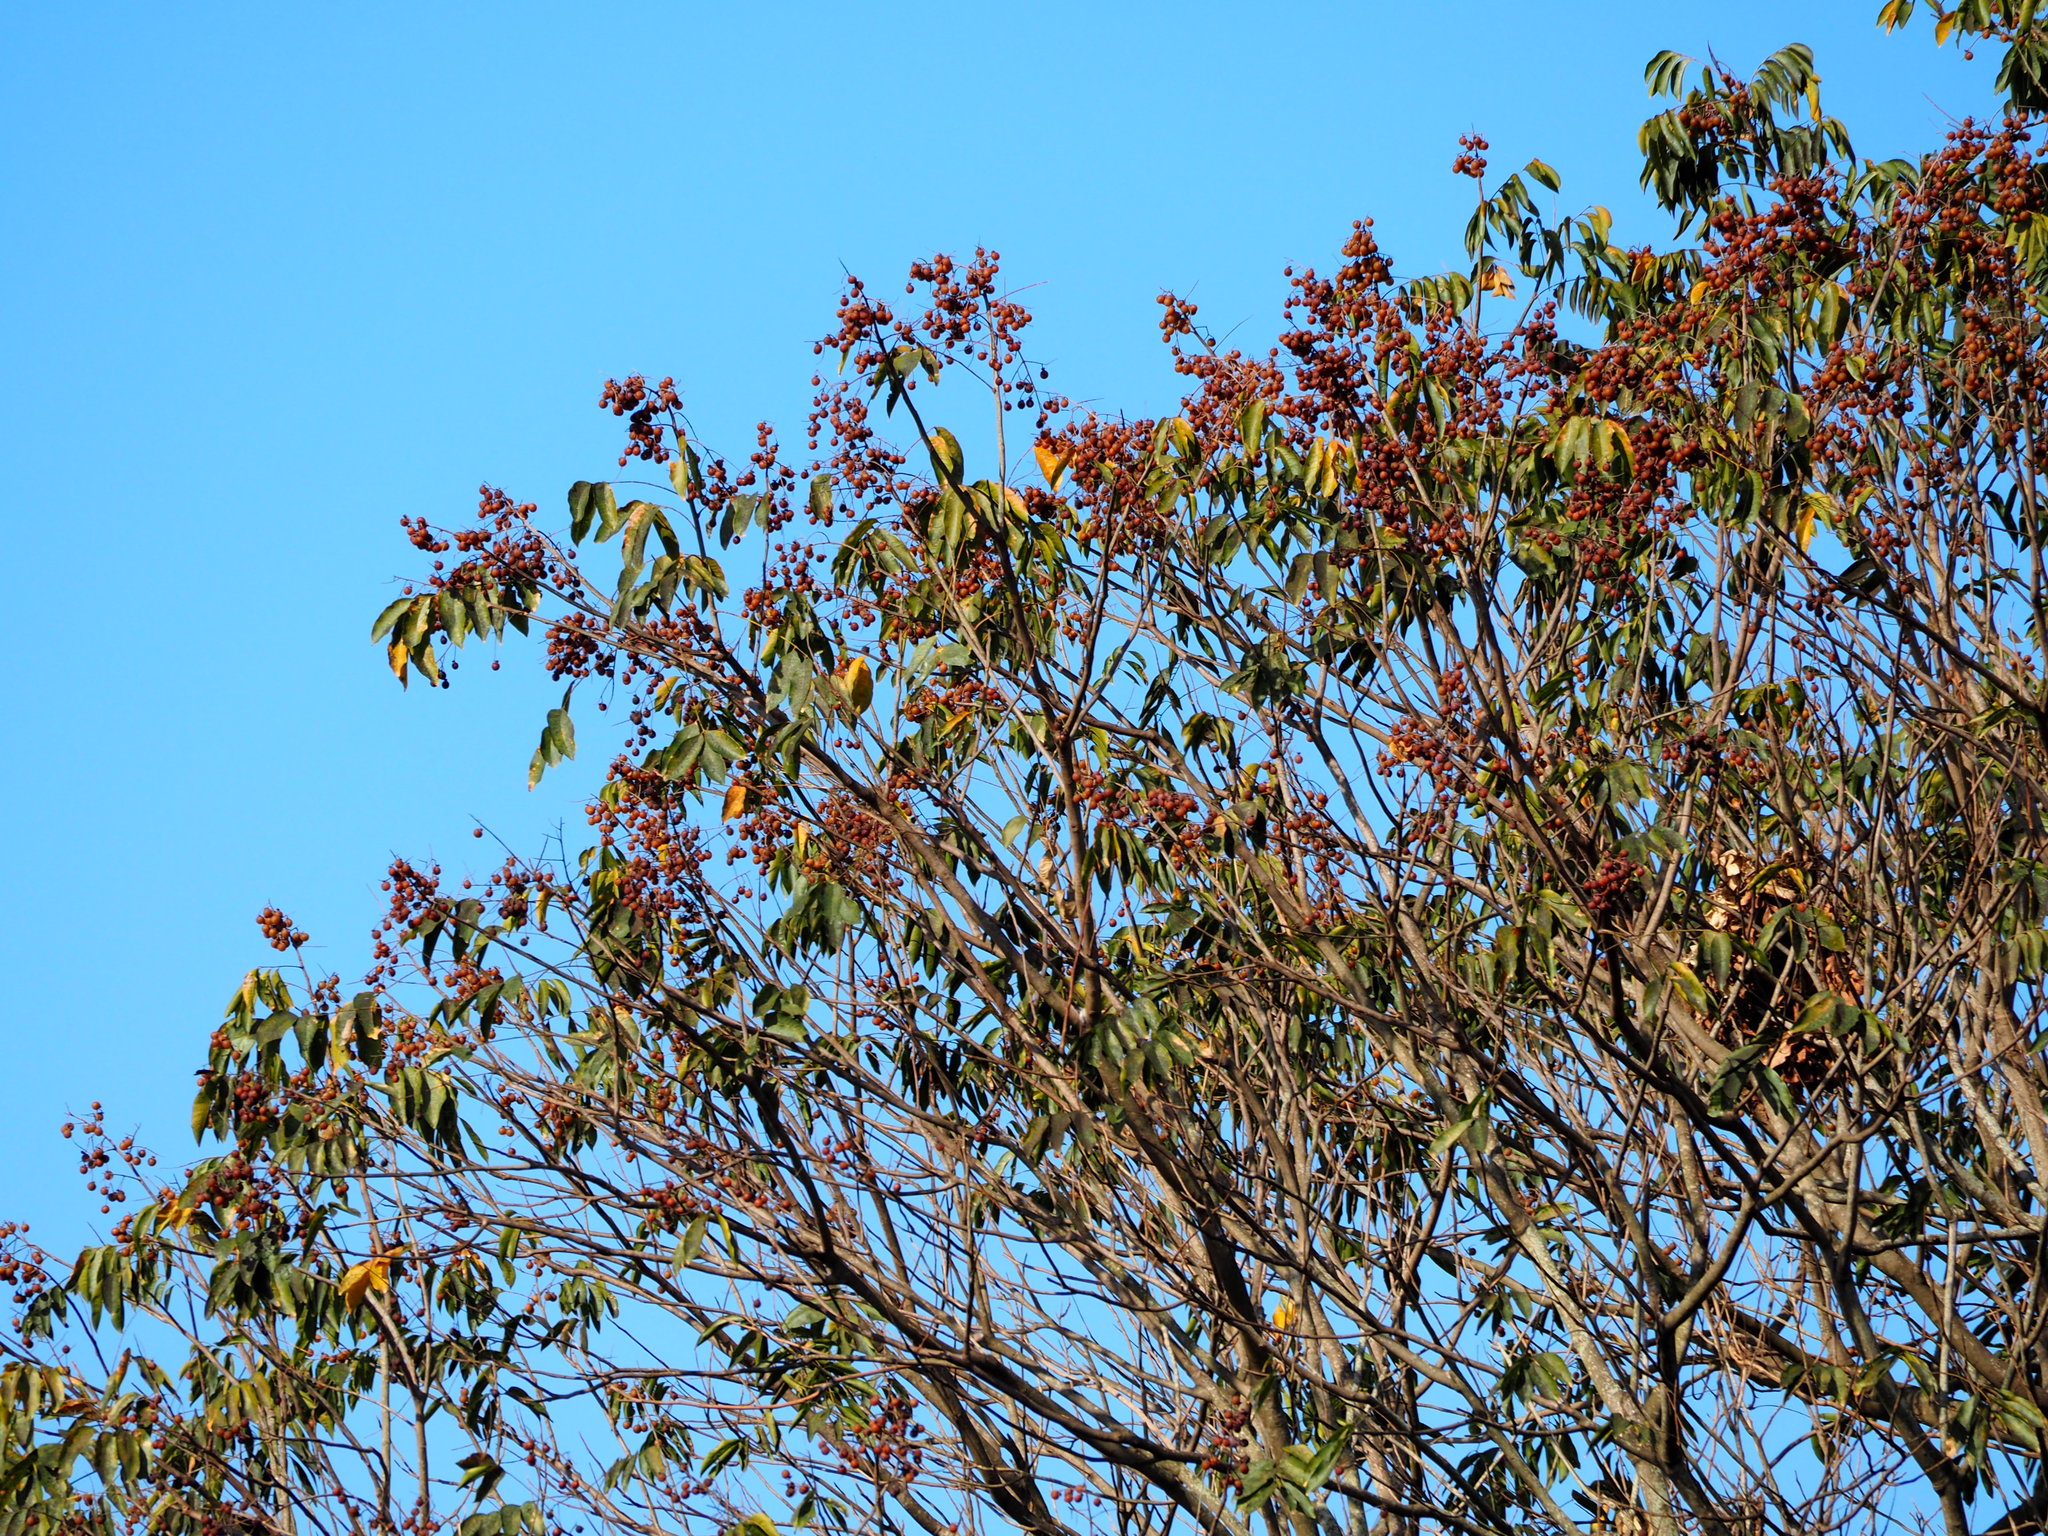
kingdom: Plantae
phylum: Tracheophyta
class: Magnoliopsida
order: Sapindales
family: Sapindaceae
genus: Sapindus
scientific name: Sapindus mukorossi
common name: Chinese soapberry
